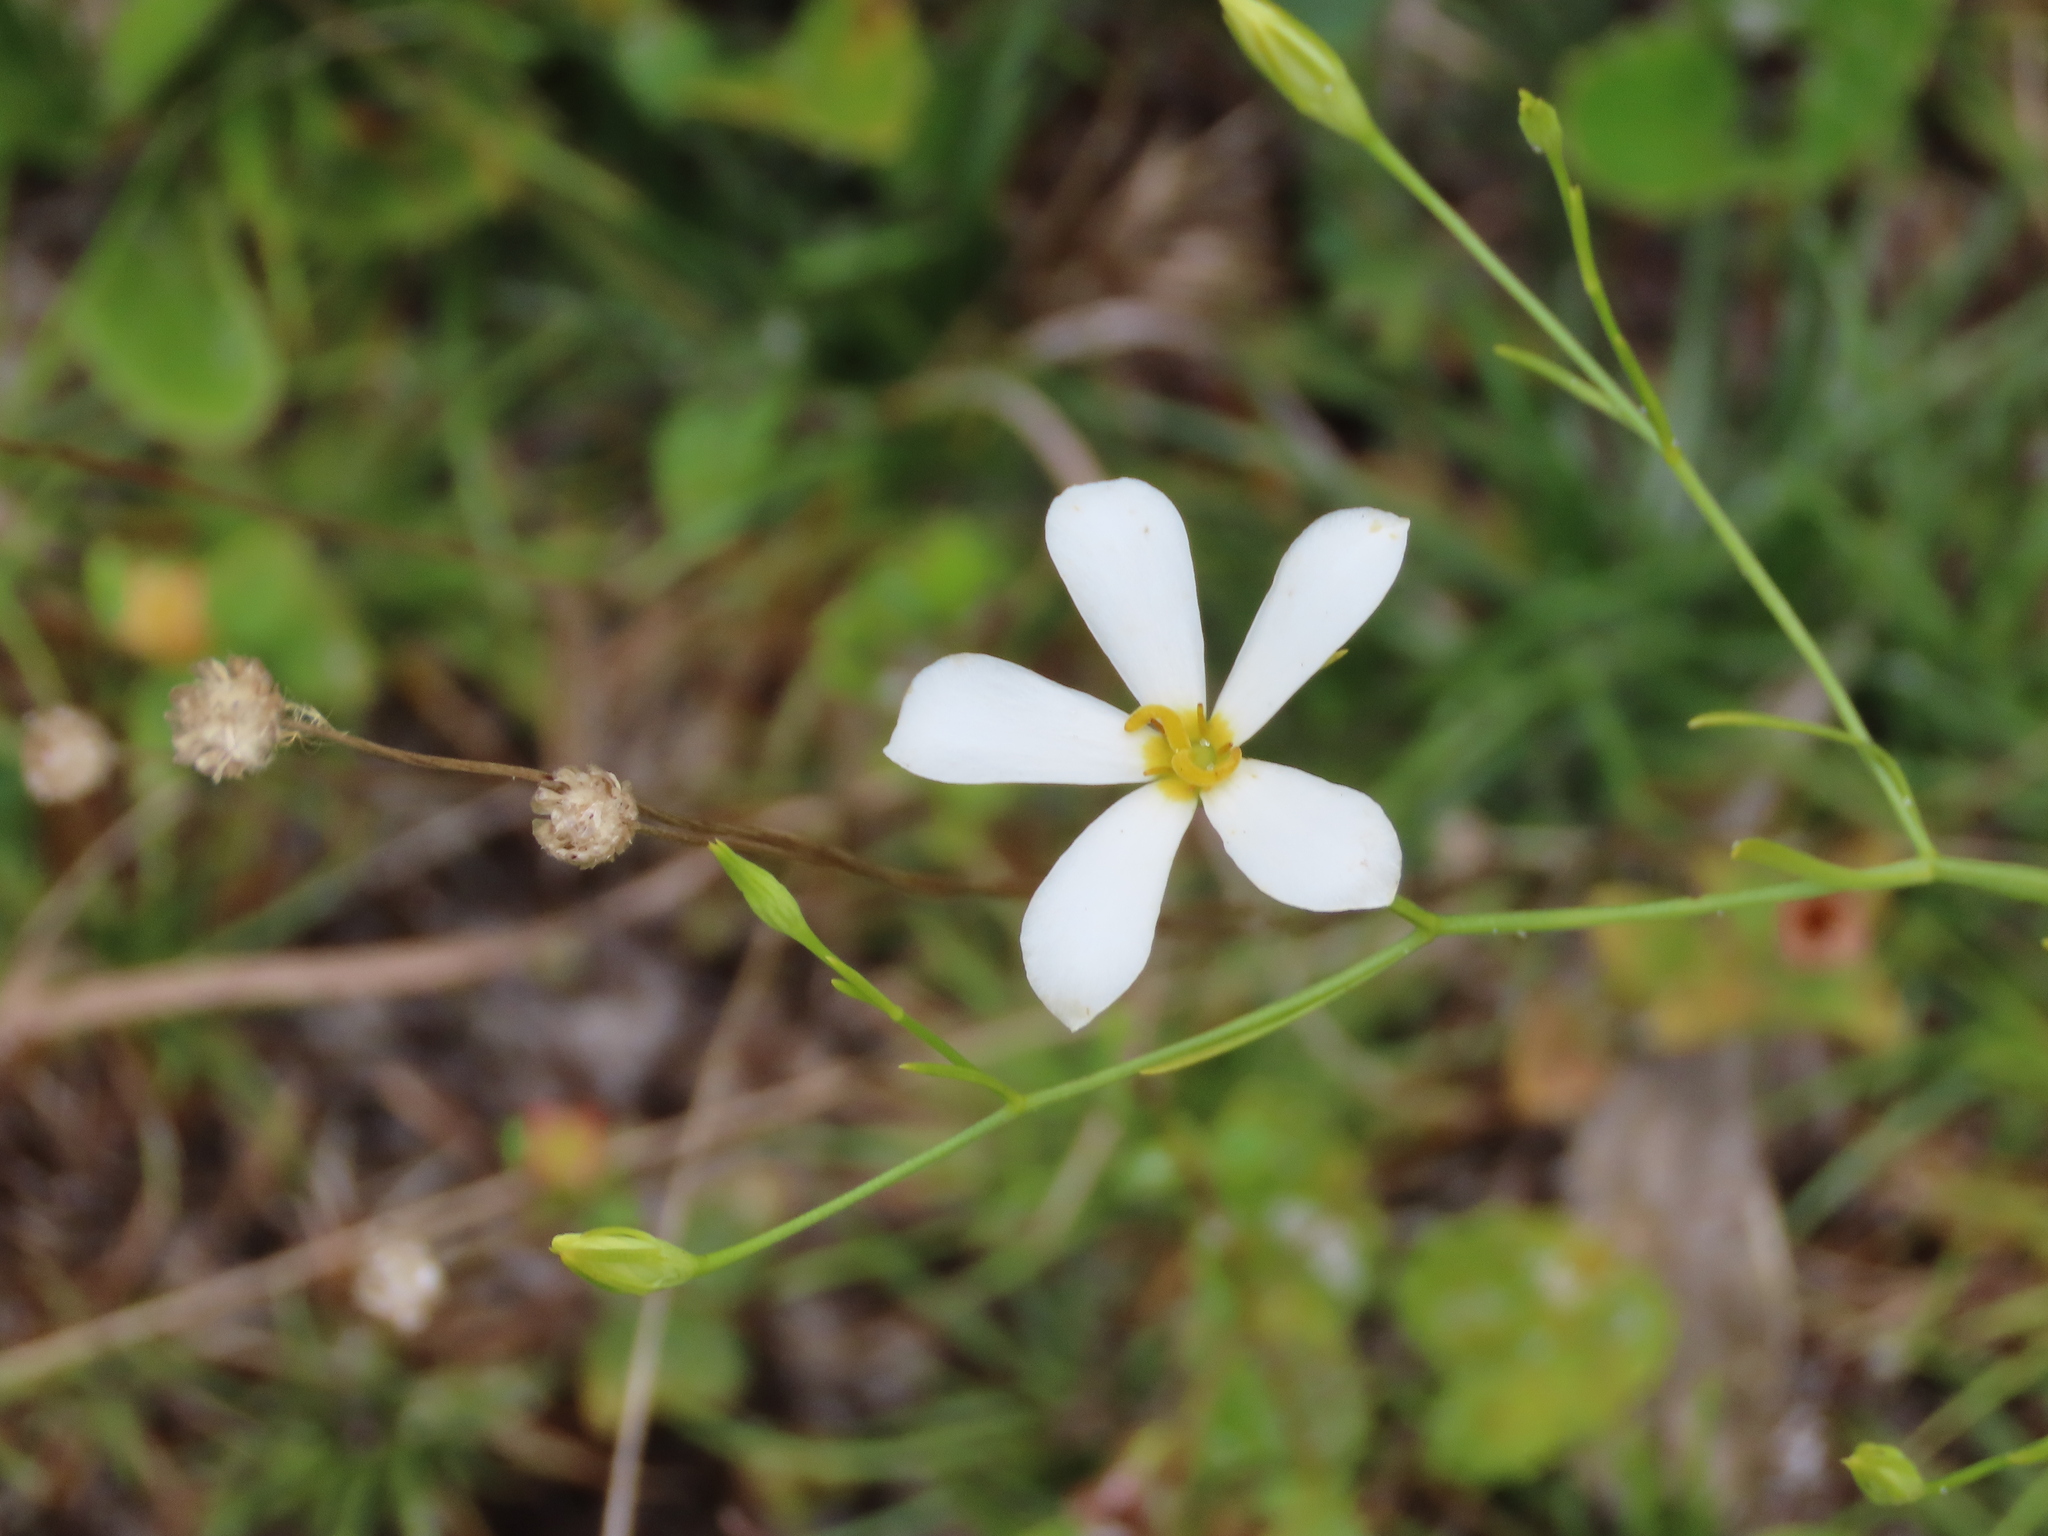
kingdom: Plantae
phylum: Tracheophyta
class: Magnoliopsida
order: Gentianales
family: Gentianaceae
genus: Sabatia
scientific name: Sabatia brevifolia
